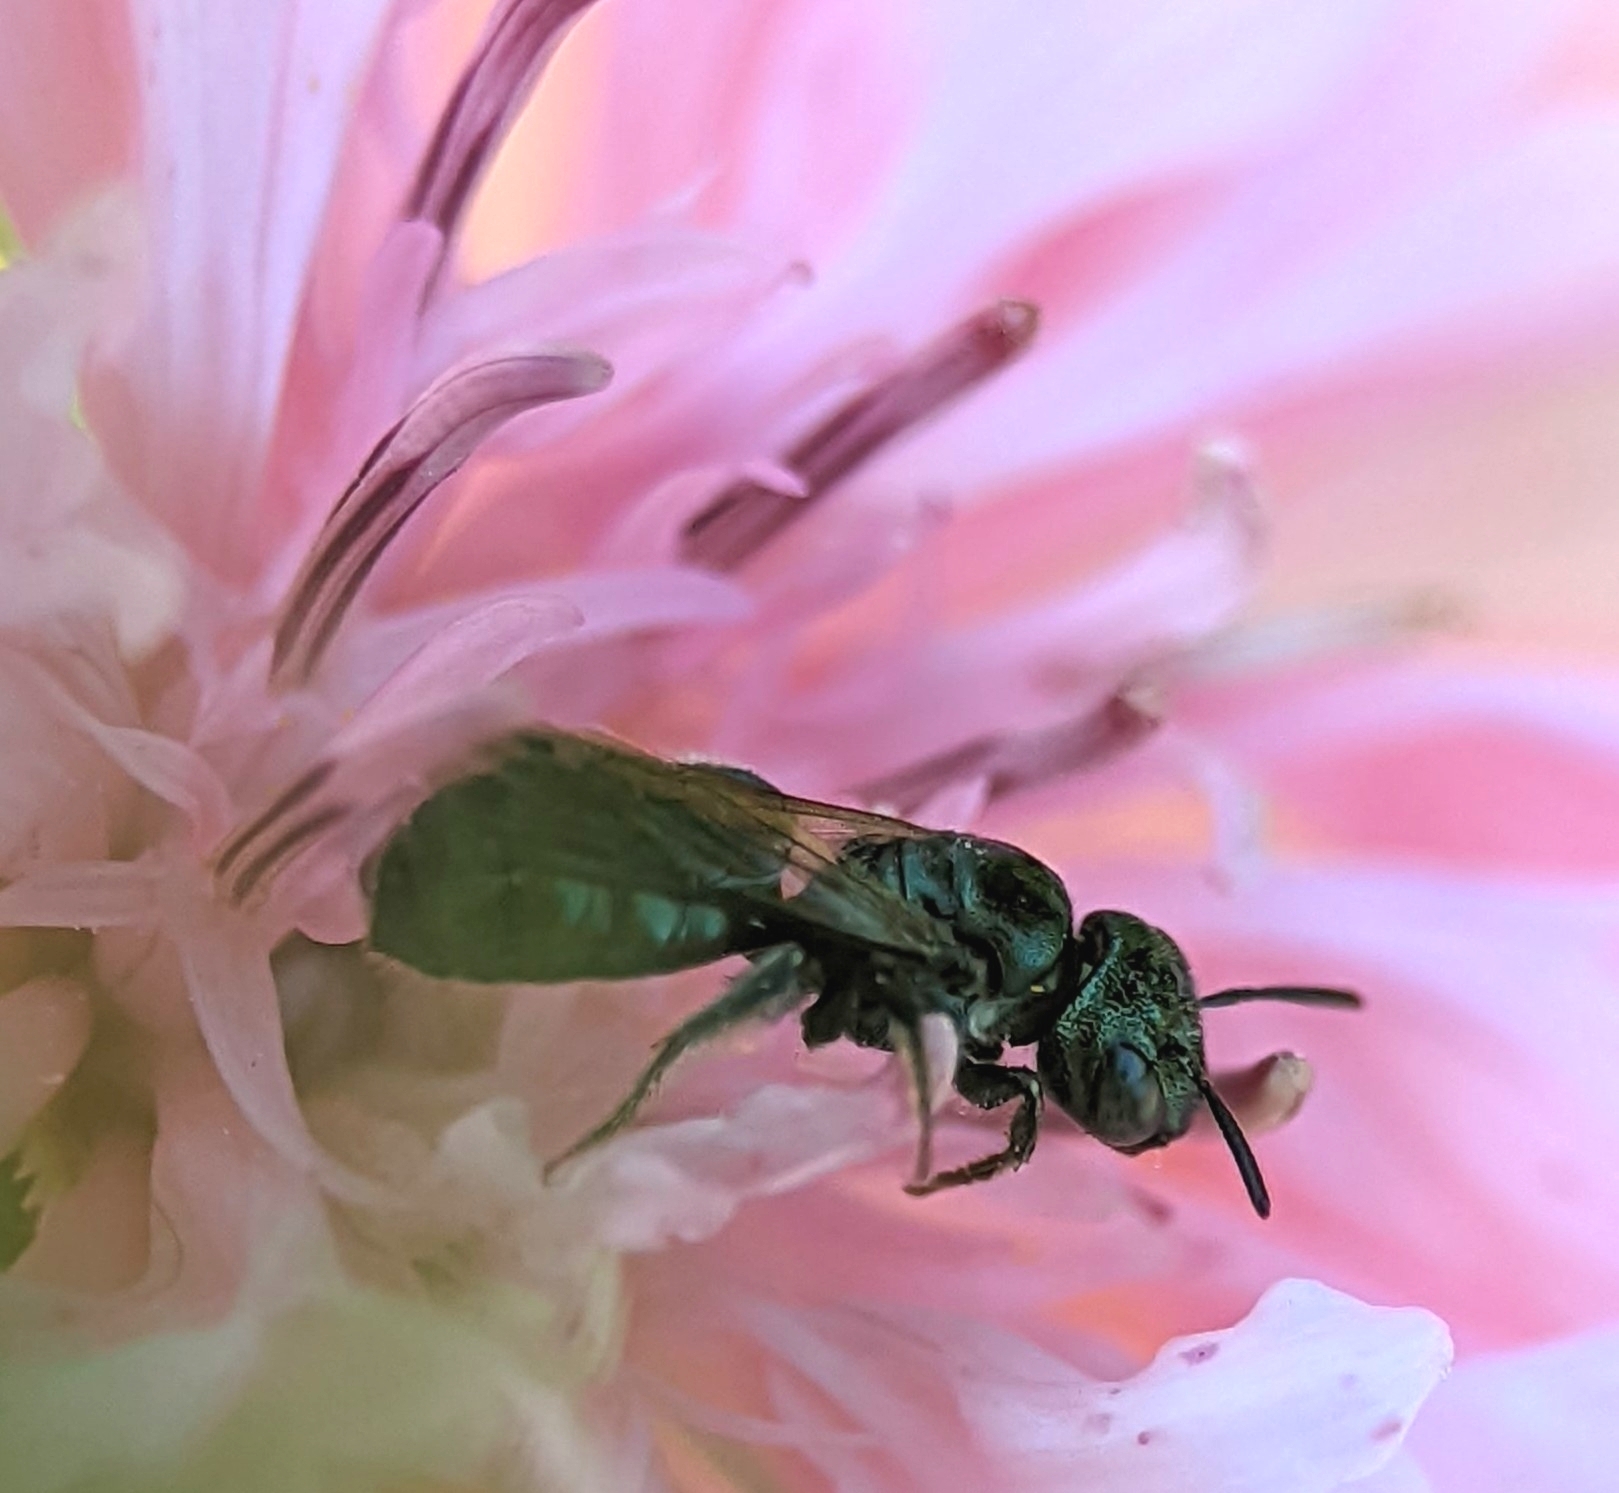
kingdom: Animalia
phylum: Arthropoda
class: Insecta
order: Hymenoptera
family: Apidae
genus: Ceratina
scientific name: Ceratina strenua
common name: Nimble carpenter bee
